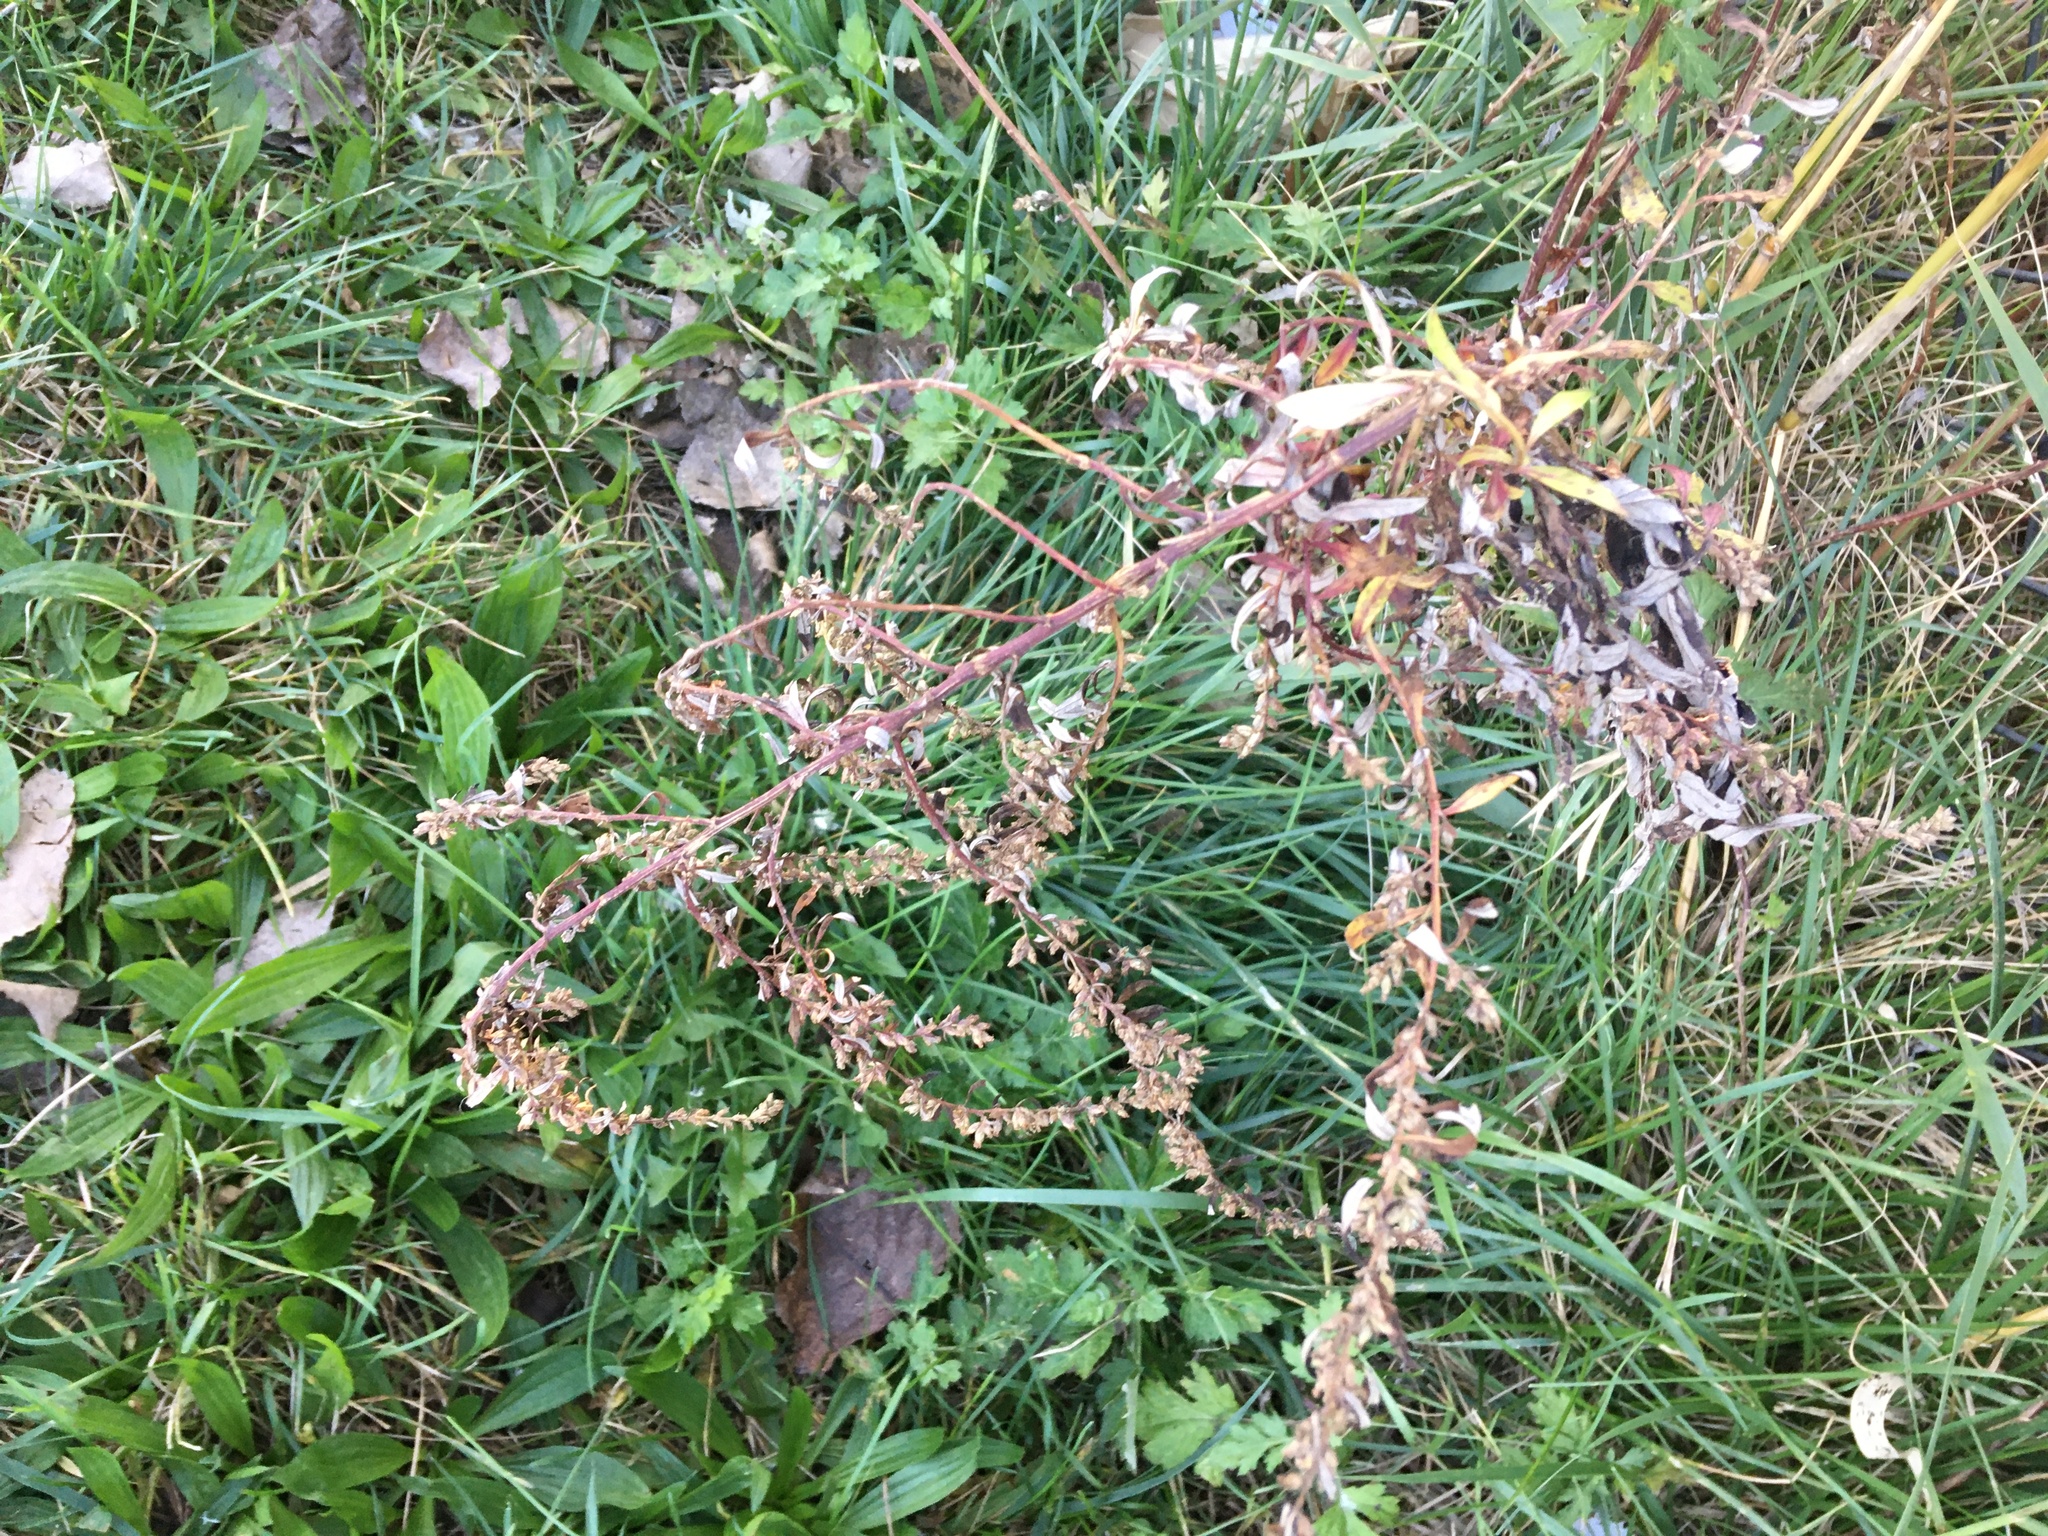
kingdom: Plantae
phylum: Tracheophyta
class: Magnoliopsida
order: Asterales
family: Asteraceae
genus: Artemisia
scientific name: Artemisia vulgaris
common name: Mugwort
